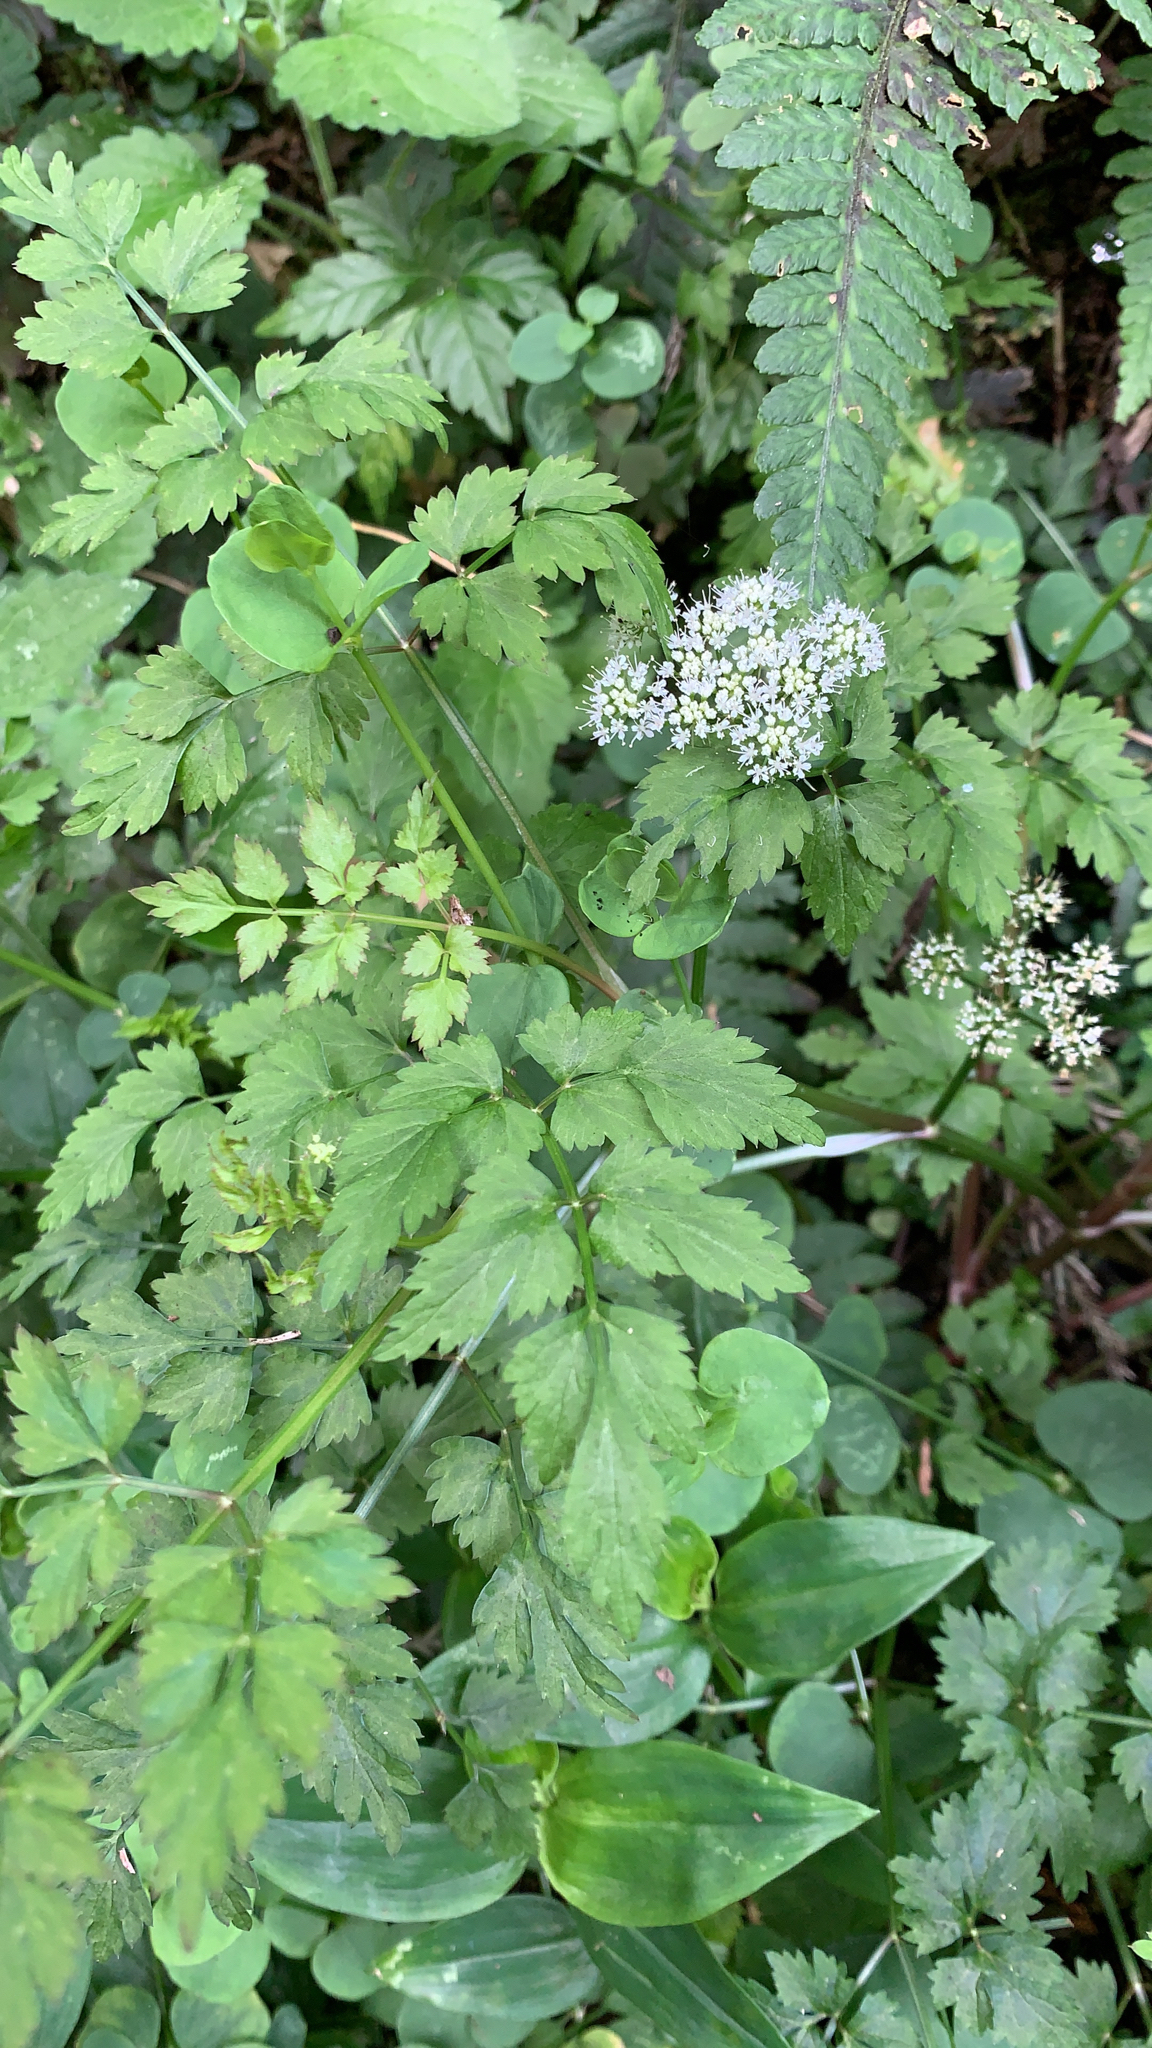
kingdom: Plantae
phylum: Tracheophyta
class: Magnoliopsida
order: Apiales
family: Apiaceae
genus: Oenanthe
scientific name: Oenanthe javanica
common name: Java water-dropwort
